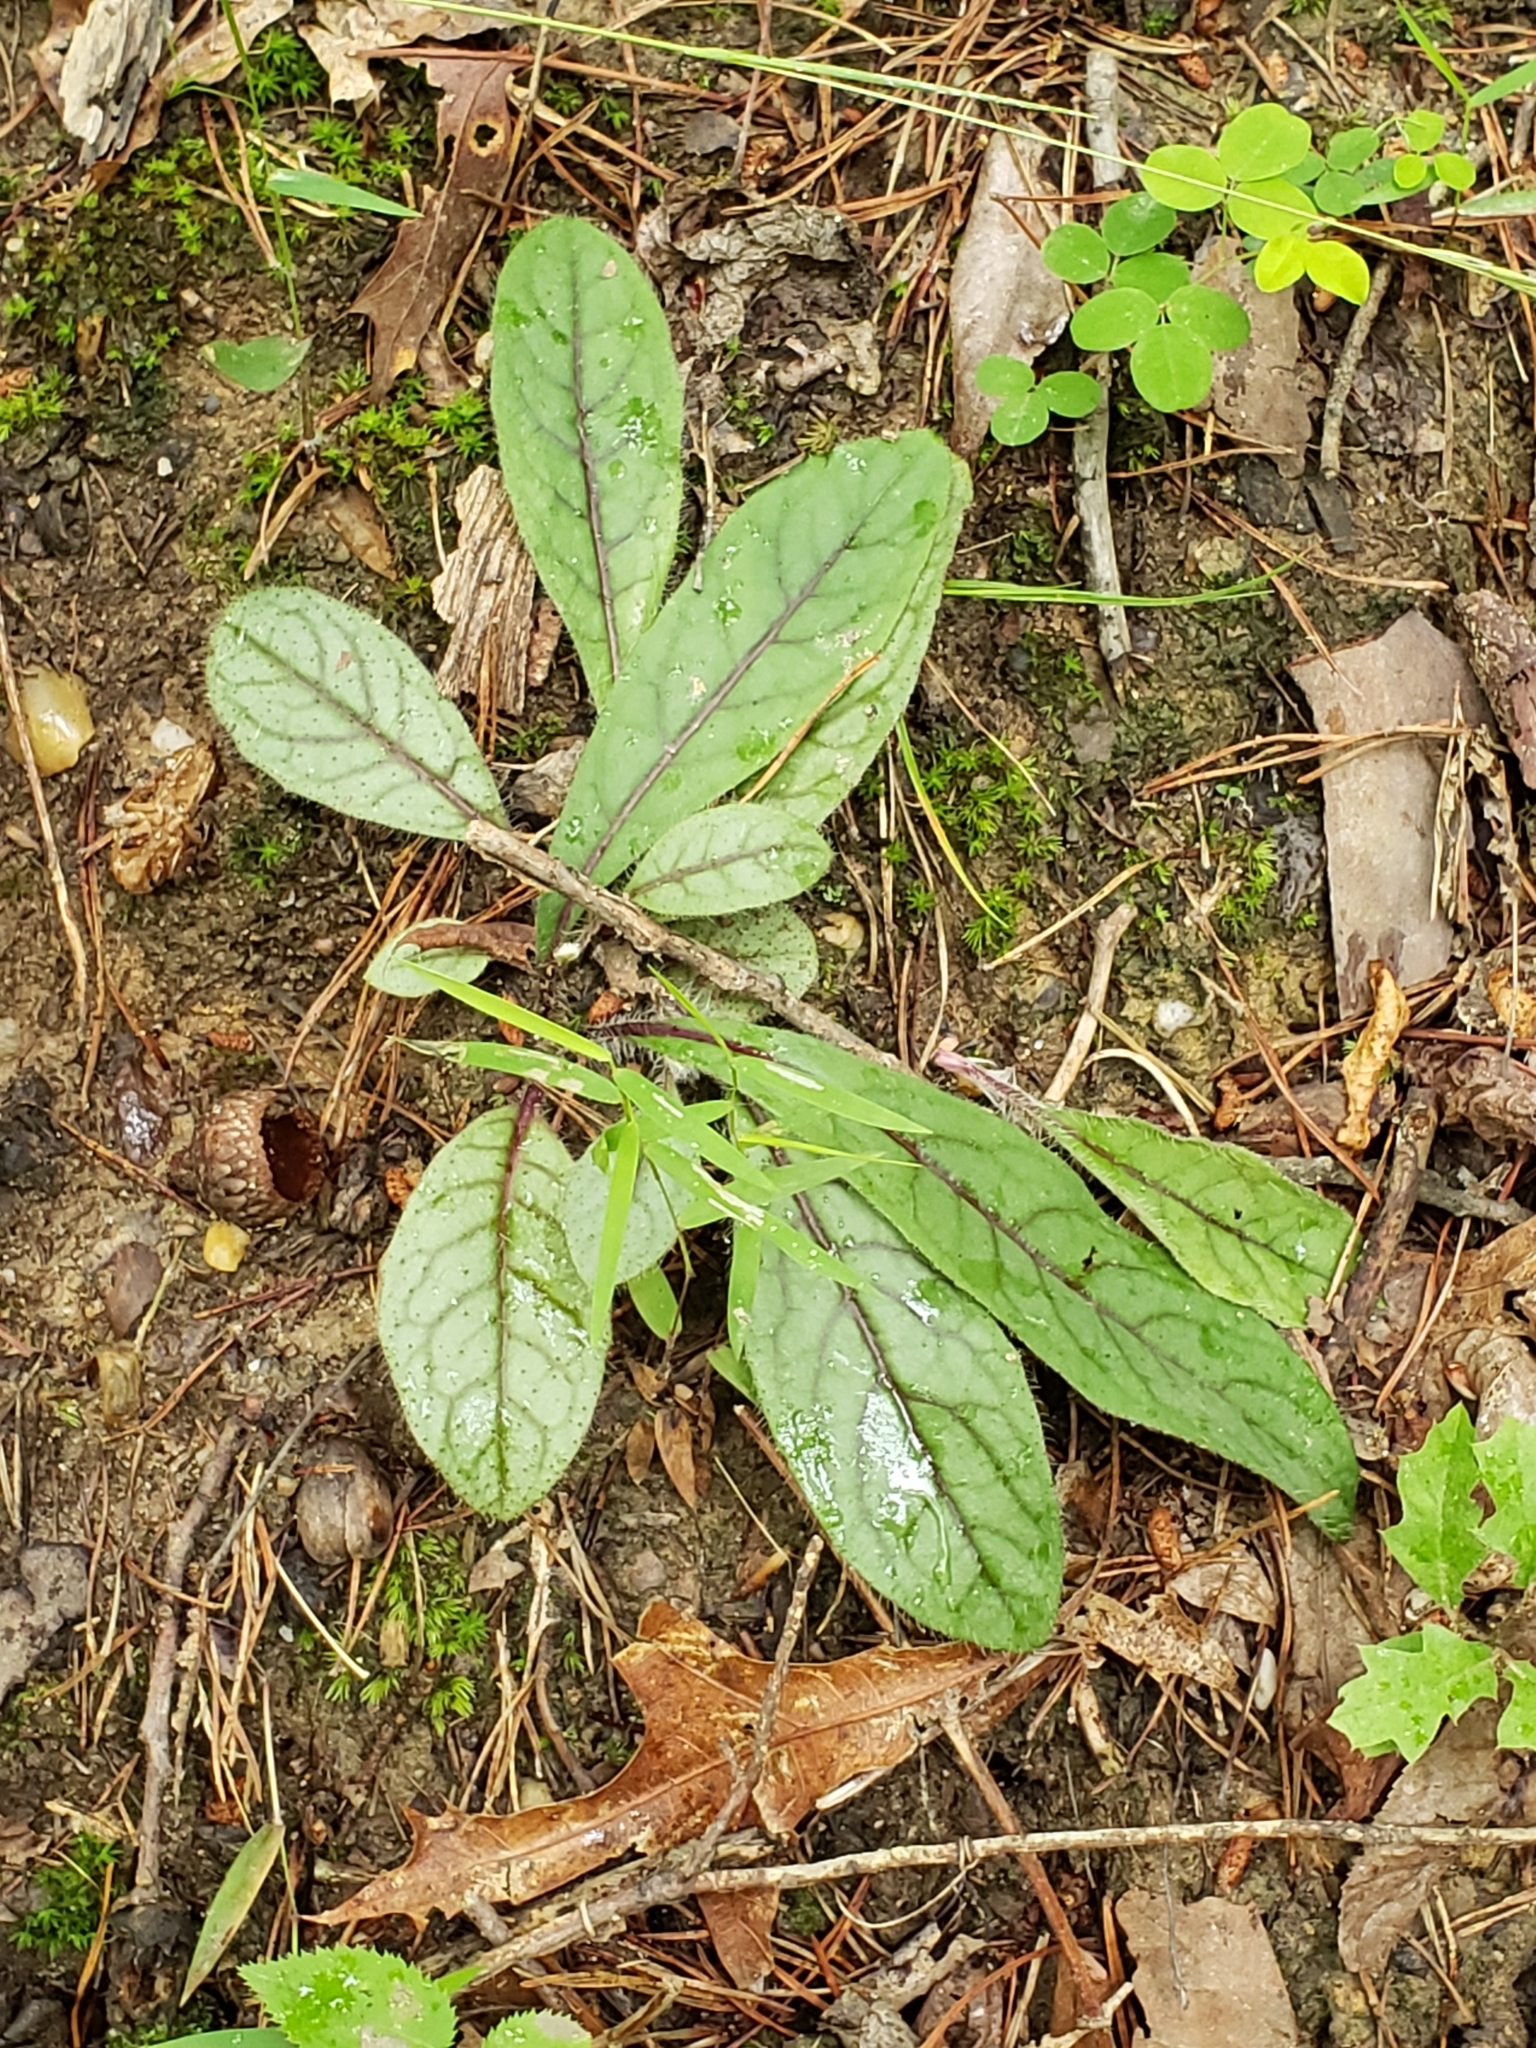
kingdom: Plantae
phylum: Tracheophyta
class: Magnoliopsida
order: Asterales
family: Asteraceae
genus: Hieracium
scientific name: Hieracium venosum
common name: Rattlesnake hawkweed
